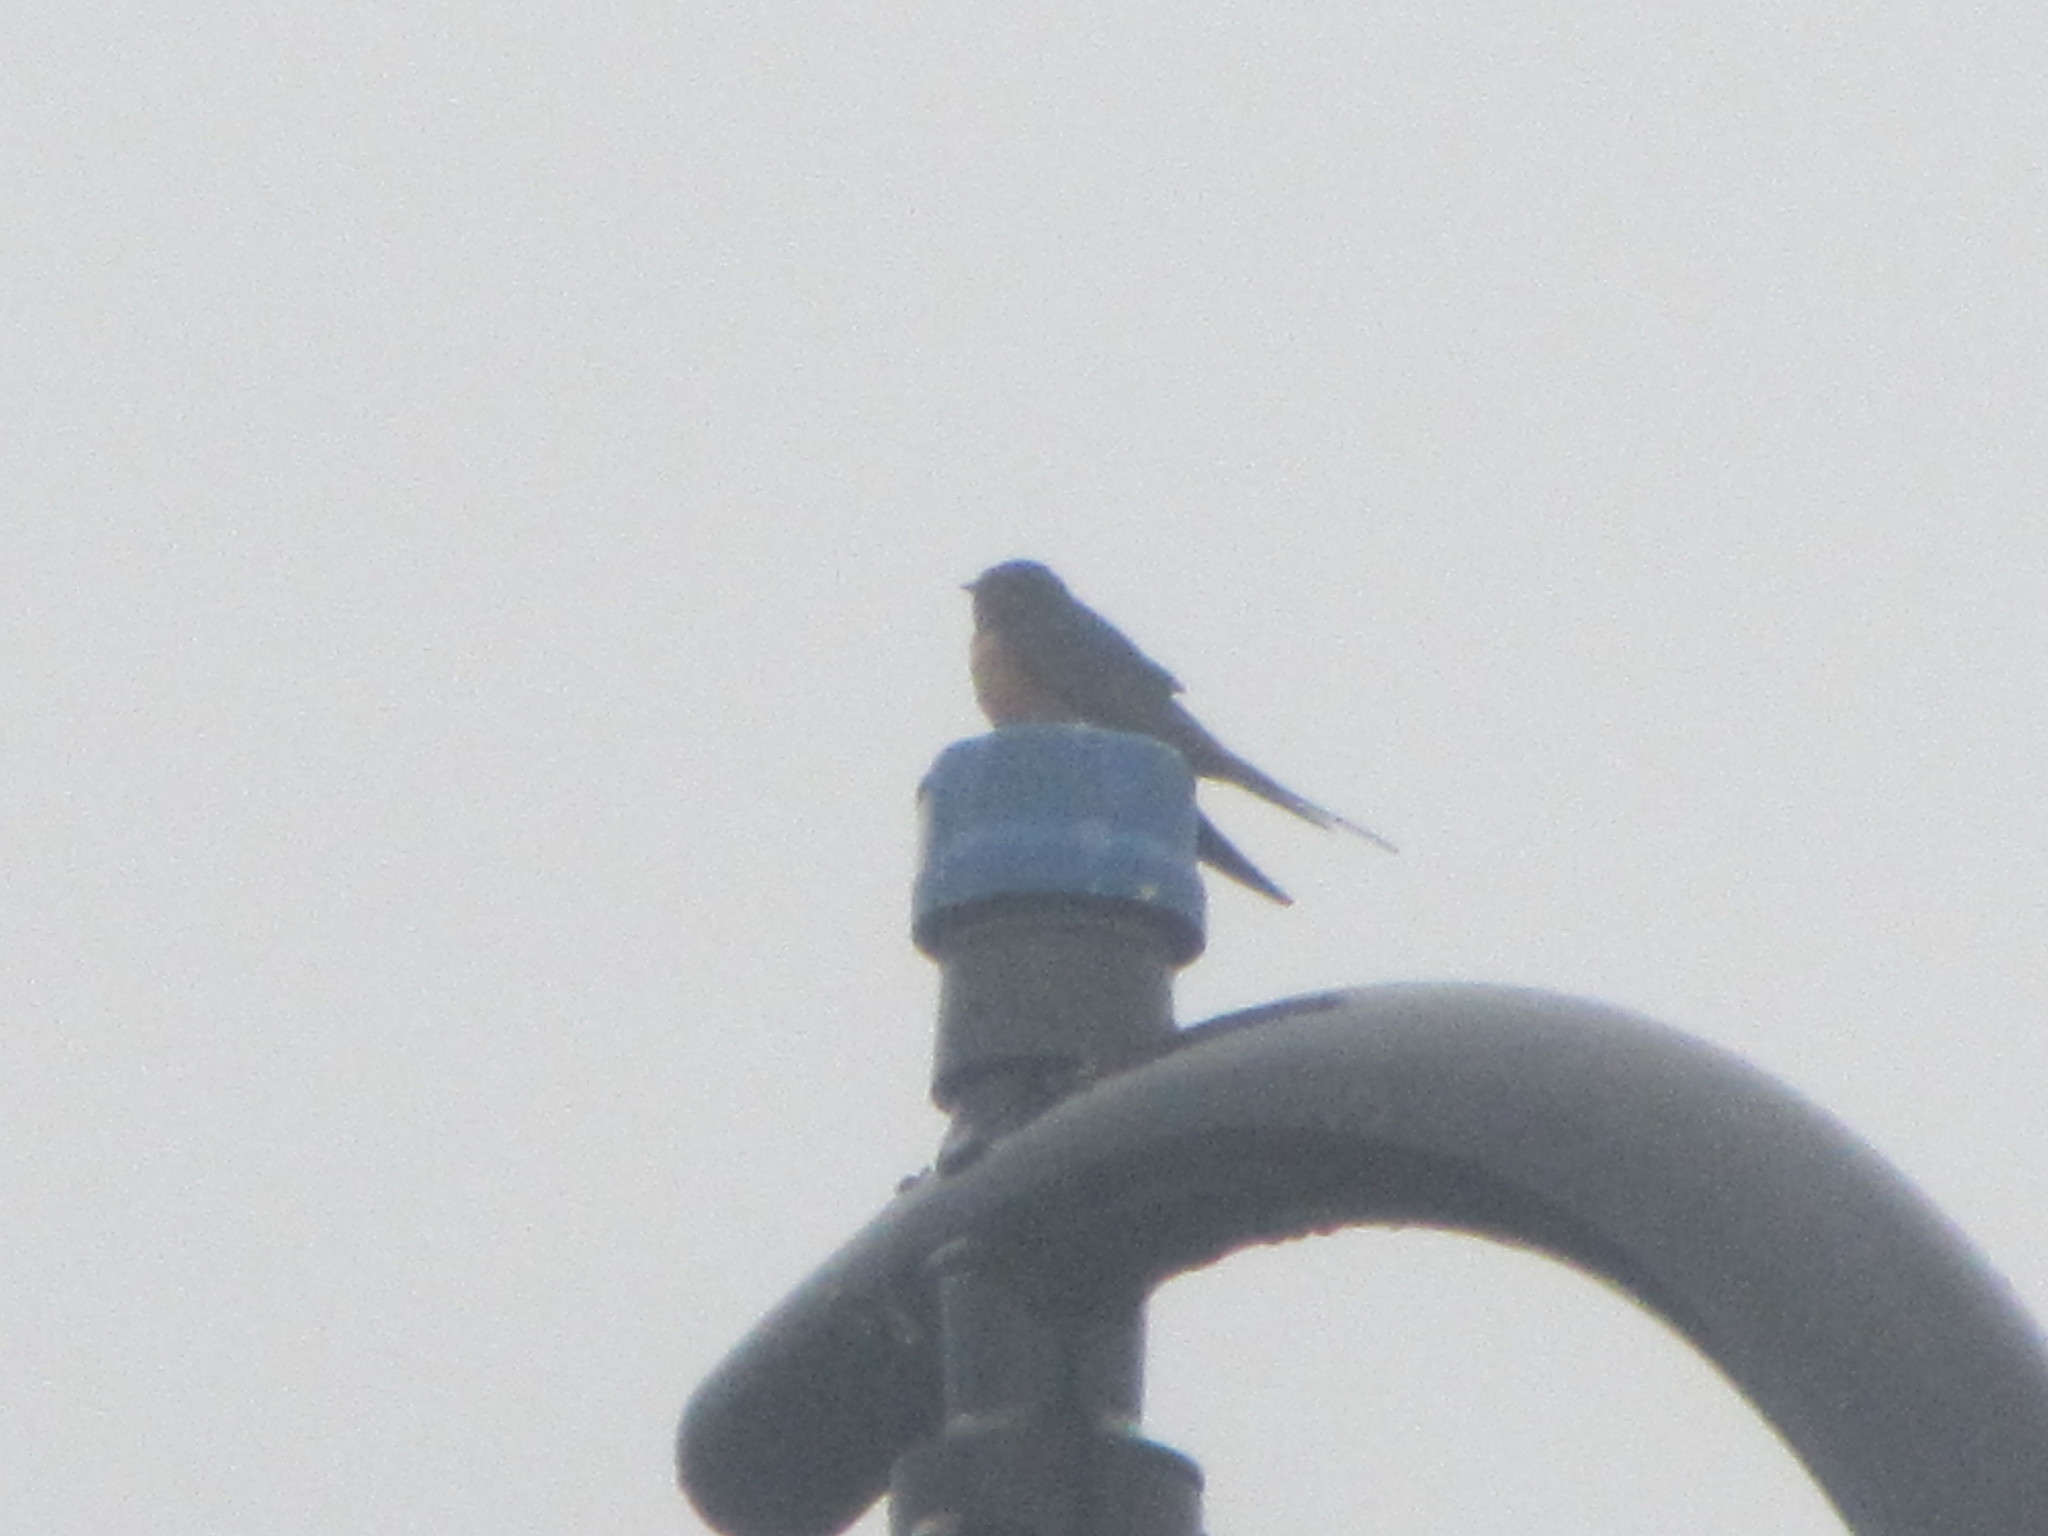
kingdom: Animalia
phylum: Chordata
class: Aves
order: Passeriformes
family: Hirundinidae
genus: Hirundo
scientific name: Hirundo rustica
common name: Barn swallow
